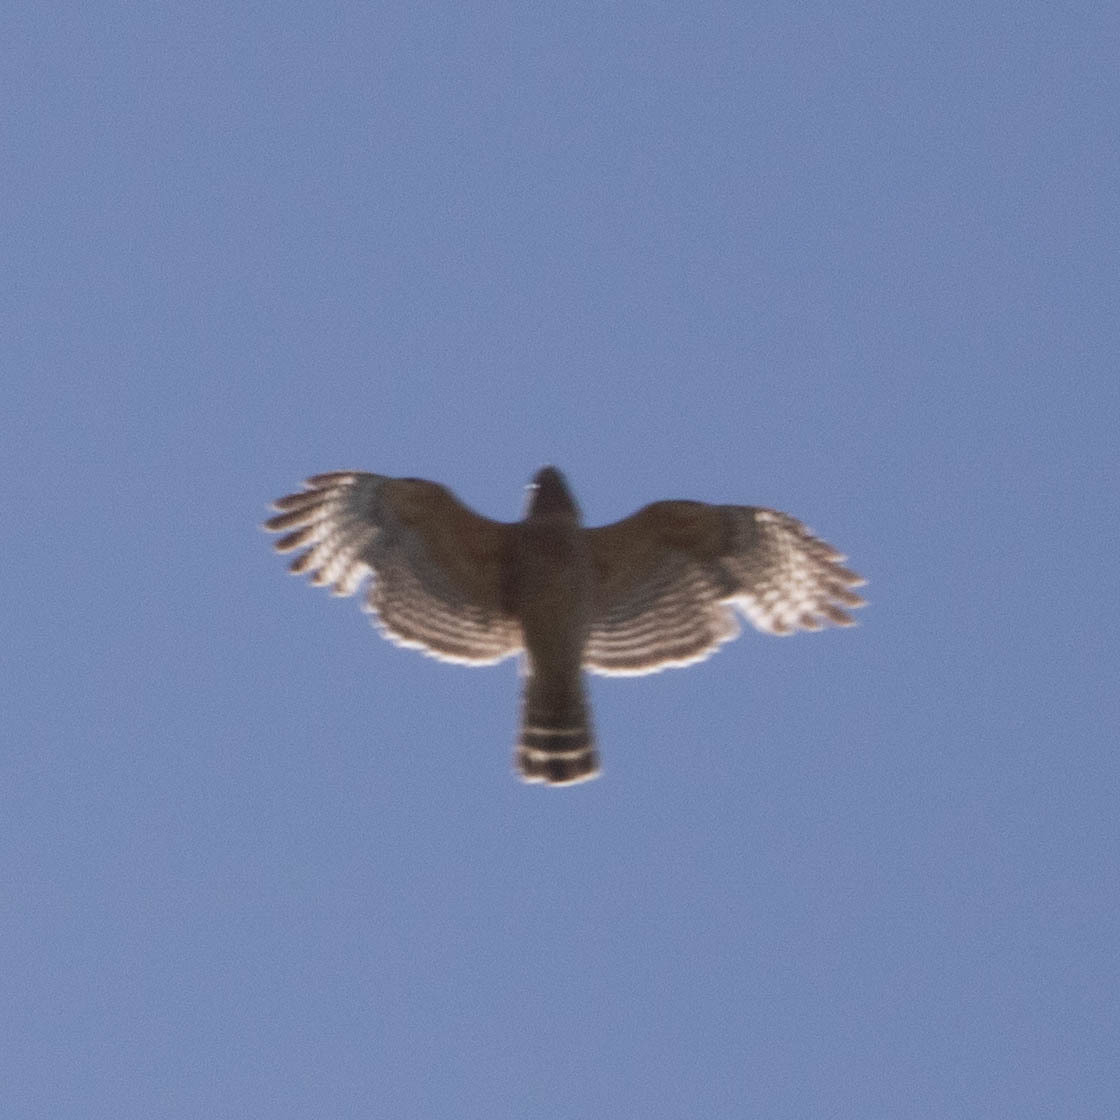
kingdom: Animalia
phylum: Chordata
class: Aves
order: Accipitriformes
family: Accipitridae
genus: Buteo
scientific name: Buteo lineatus
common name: Red-shouldered hawk
